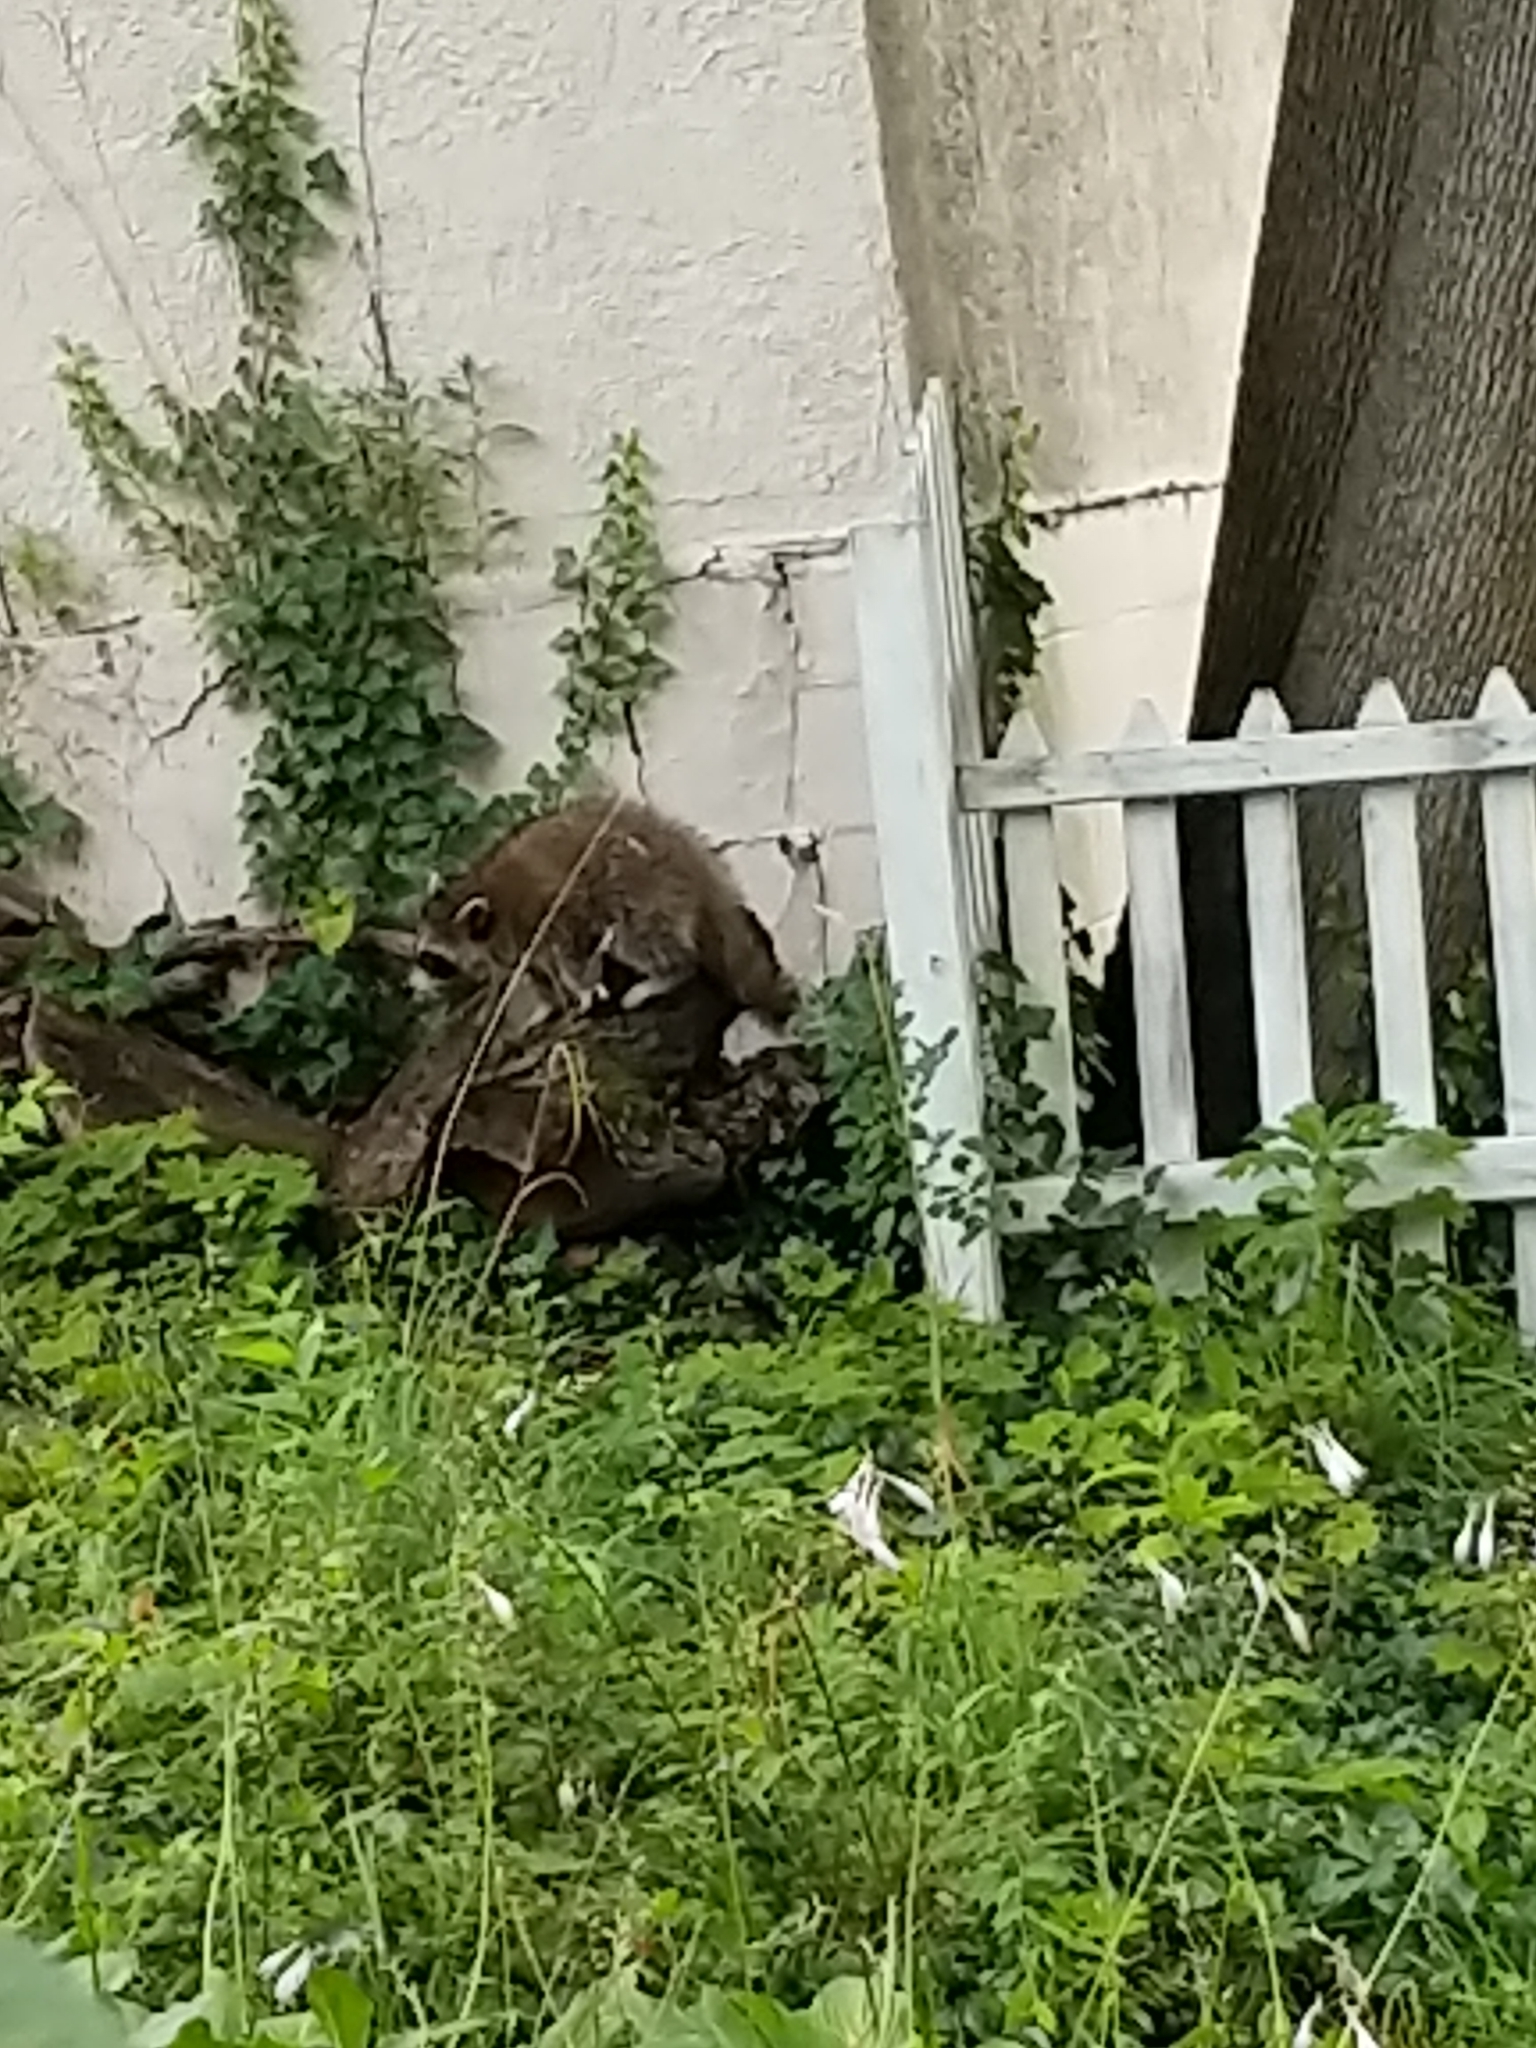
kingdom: Animalia
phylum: Chordata
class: Mammalia
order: Carnivora
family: Procyonidae
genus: Procyon
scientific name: Procyon lotor
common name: Raccoon
